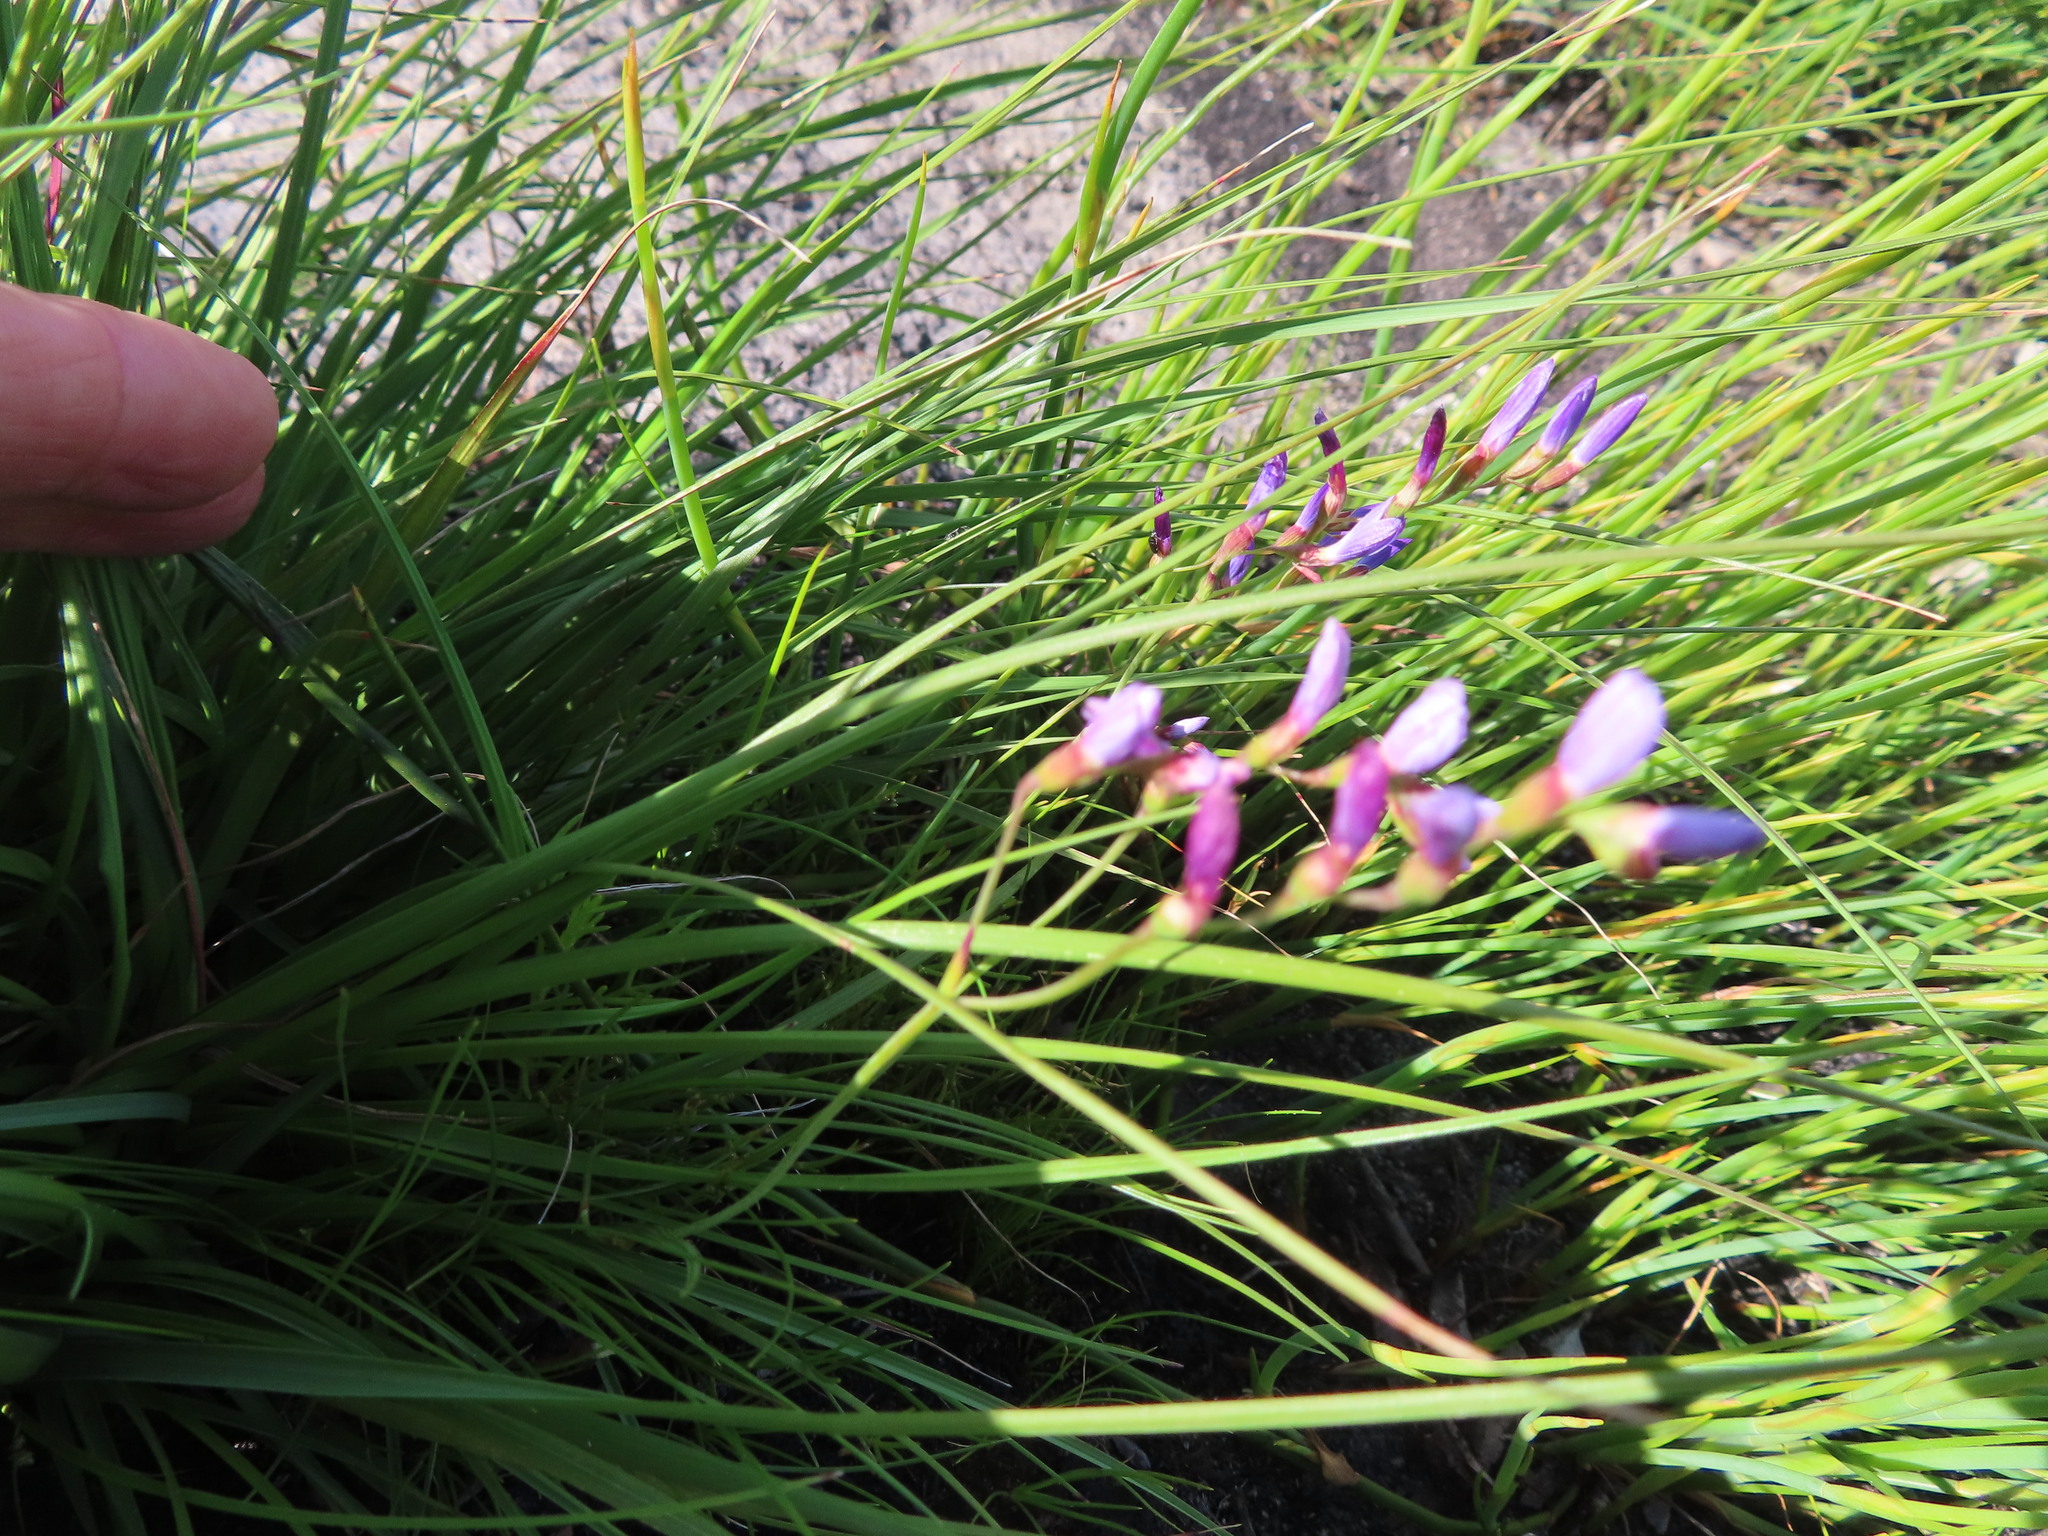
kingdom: Plantae
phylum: Tracheophyta
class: Liliopsida
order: Asparagales
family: Iridaceae
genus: Geissorhiza
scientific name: Geissorhiza aspera
